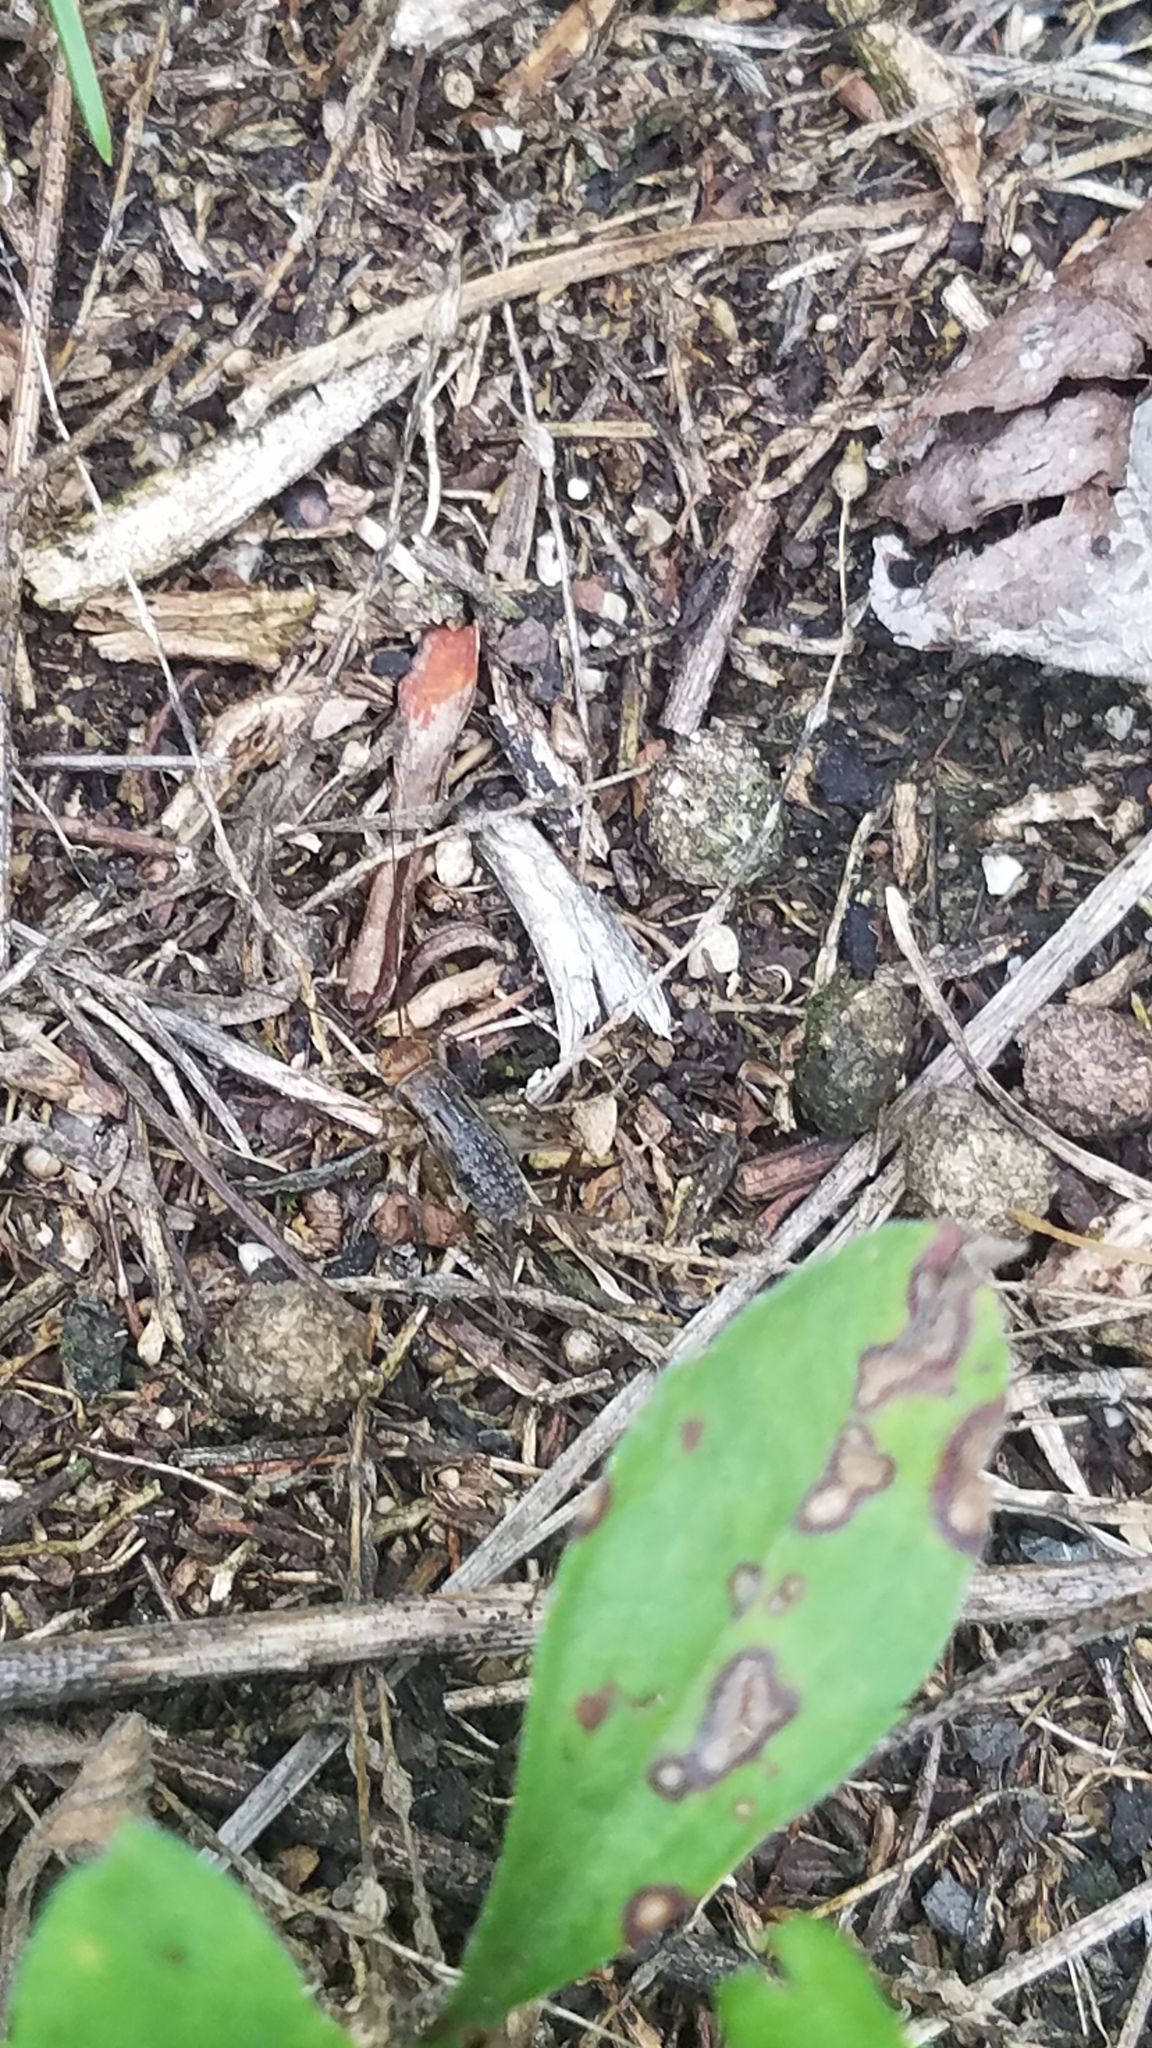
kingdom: Animalia
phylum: Chordata
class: Mammalia
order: Lagomorpha
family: Leporidae
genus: Sylvilagus
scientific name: Sylvilagus floridanus
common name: Eastern cottontail
